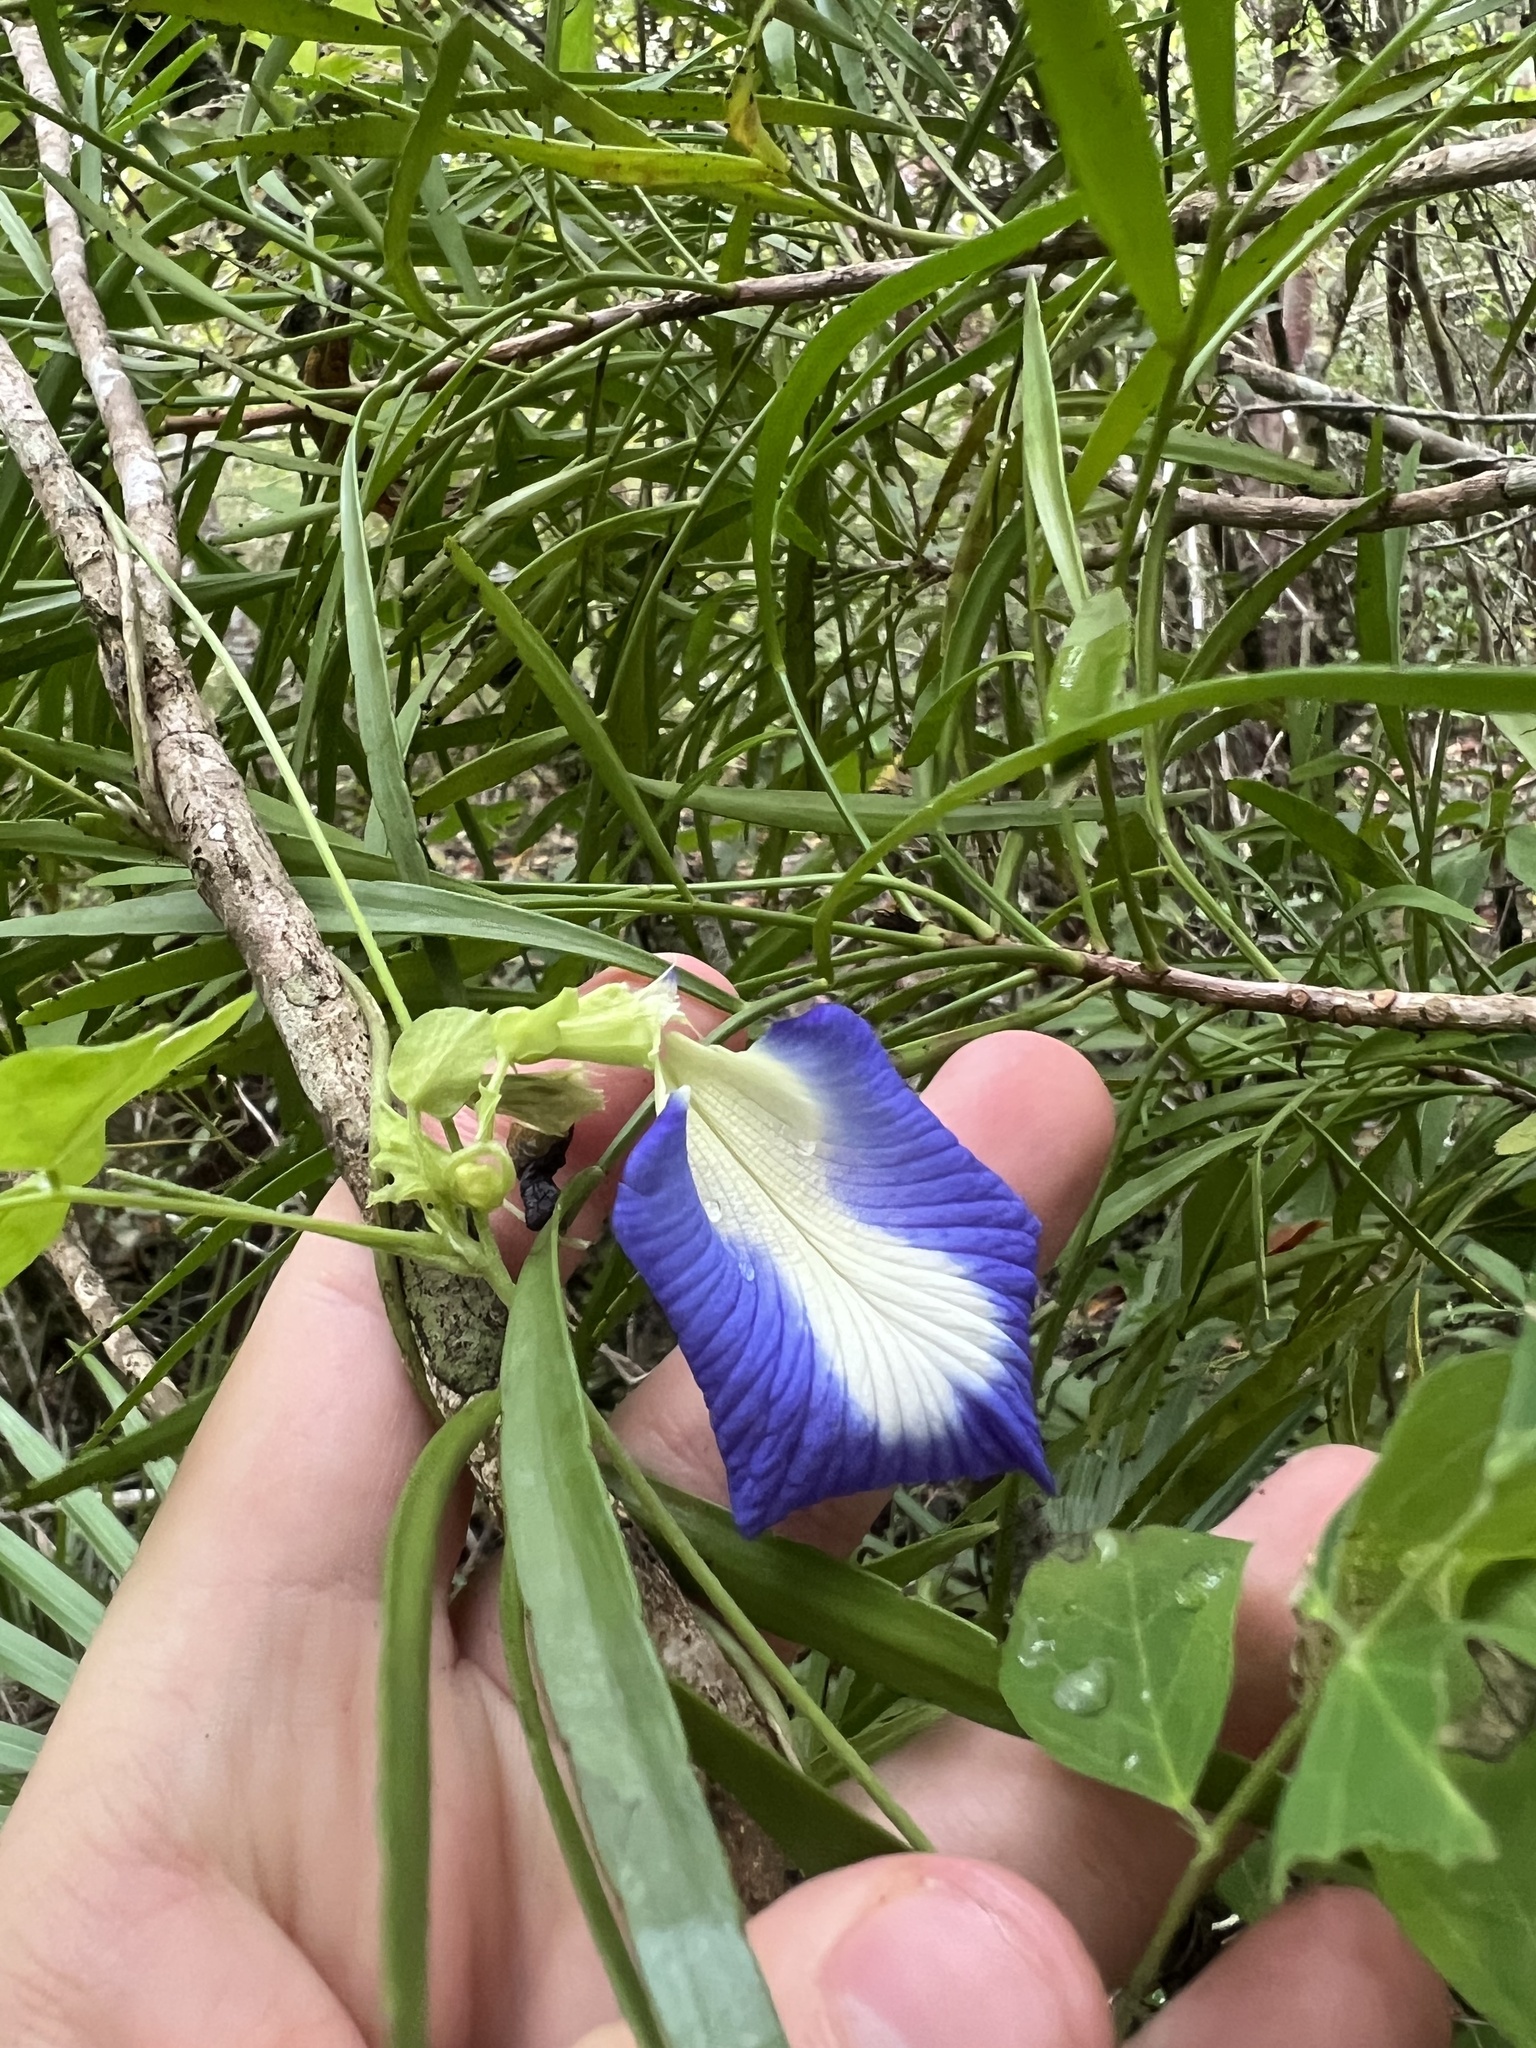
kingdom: Plantae
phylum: Tracheophyta
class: Magnoliopsida
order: Fabales
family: Fabaceae
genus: Clitoria
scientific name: Clitoria ternatea
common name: Asian pigeonwings
